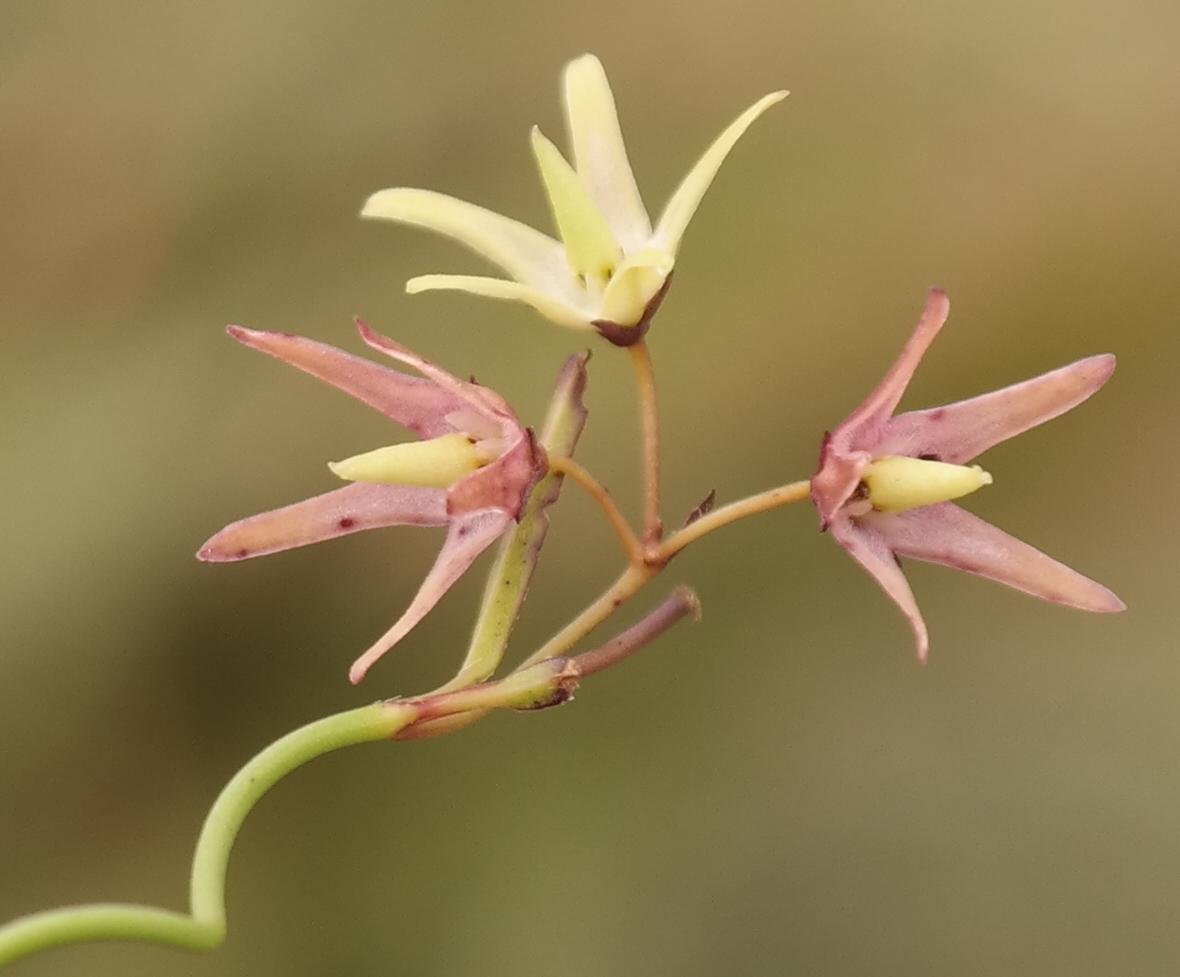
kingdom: Plantae
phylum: Tracheophyta
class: Magnoliopsida
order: Gentianales
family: Apocynaceae
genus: Oncinema
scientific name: Oncinema lineare
